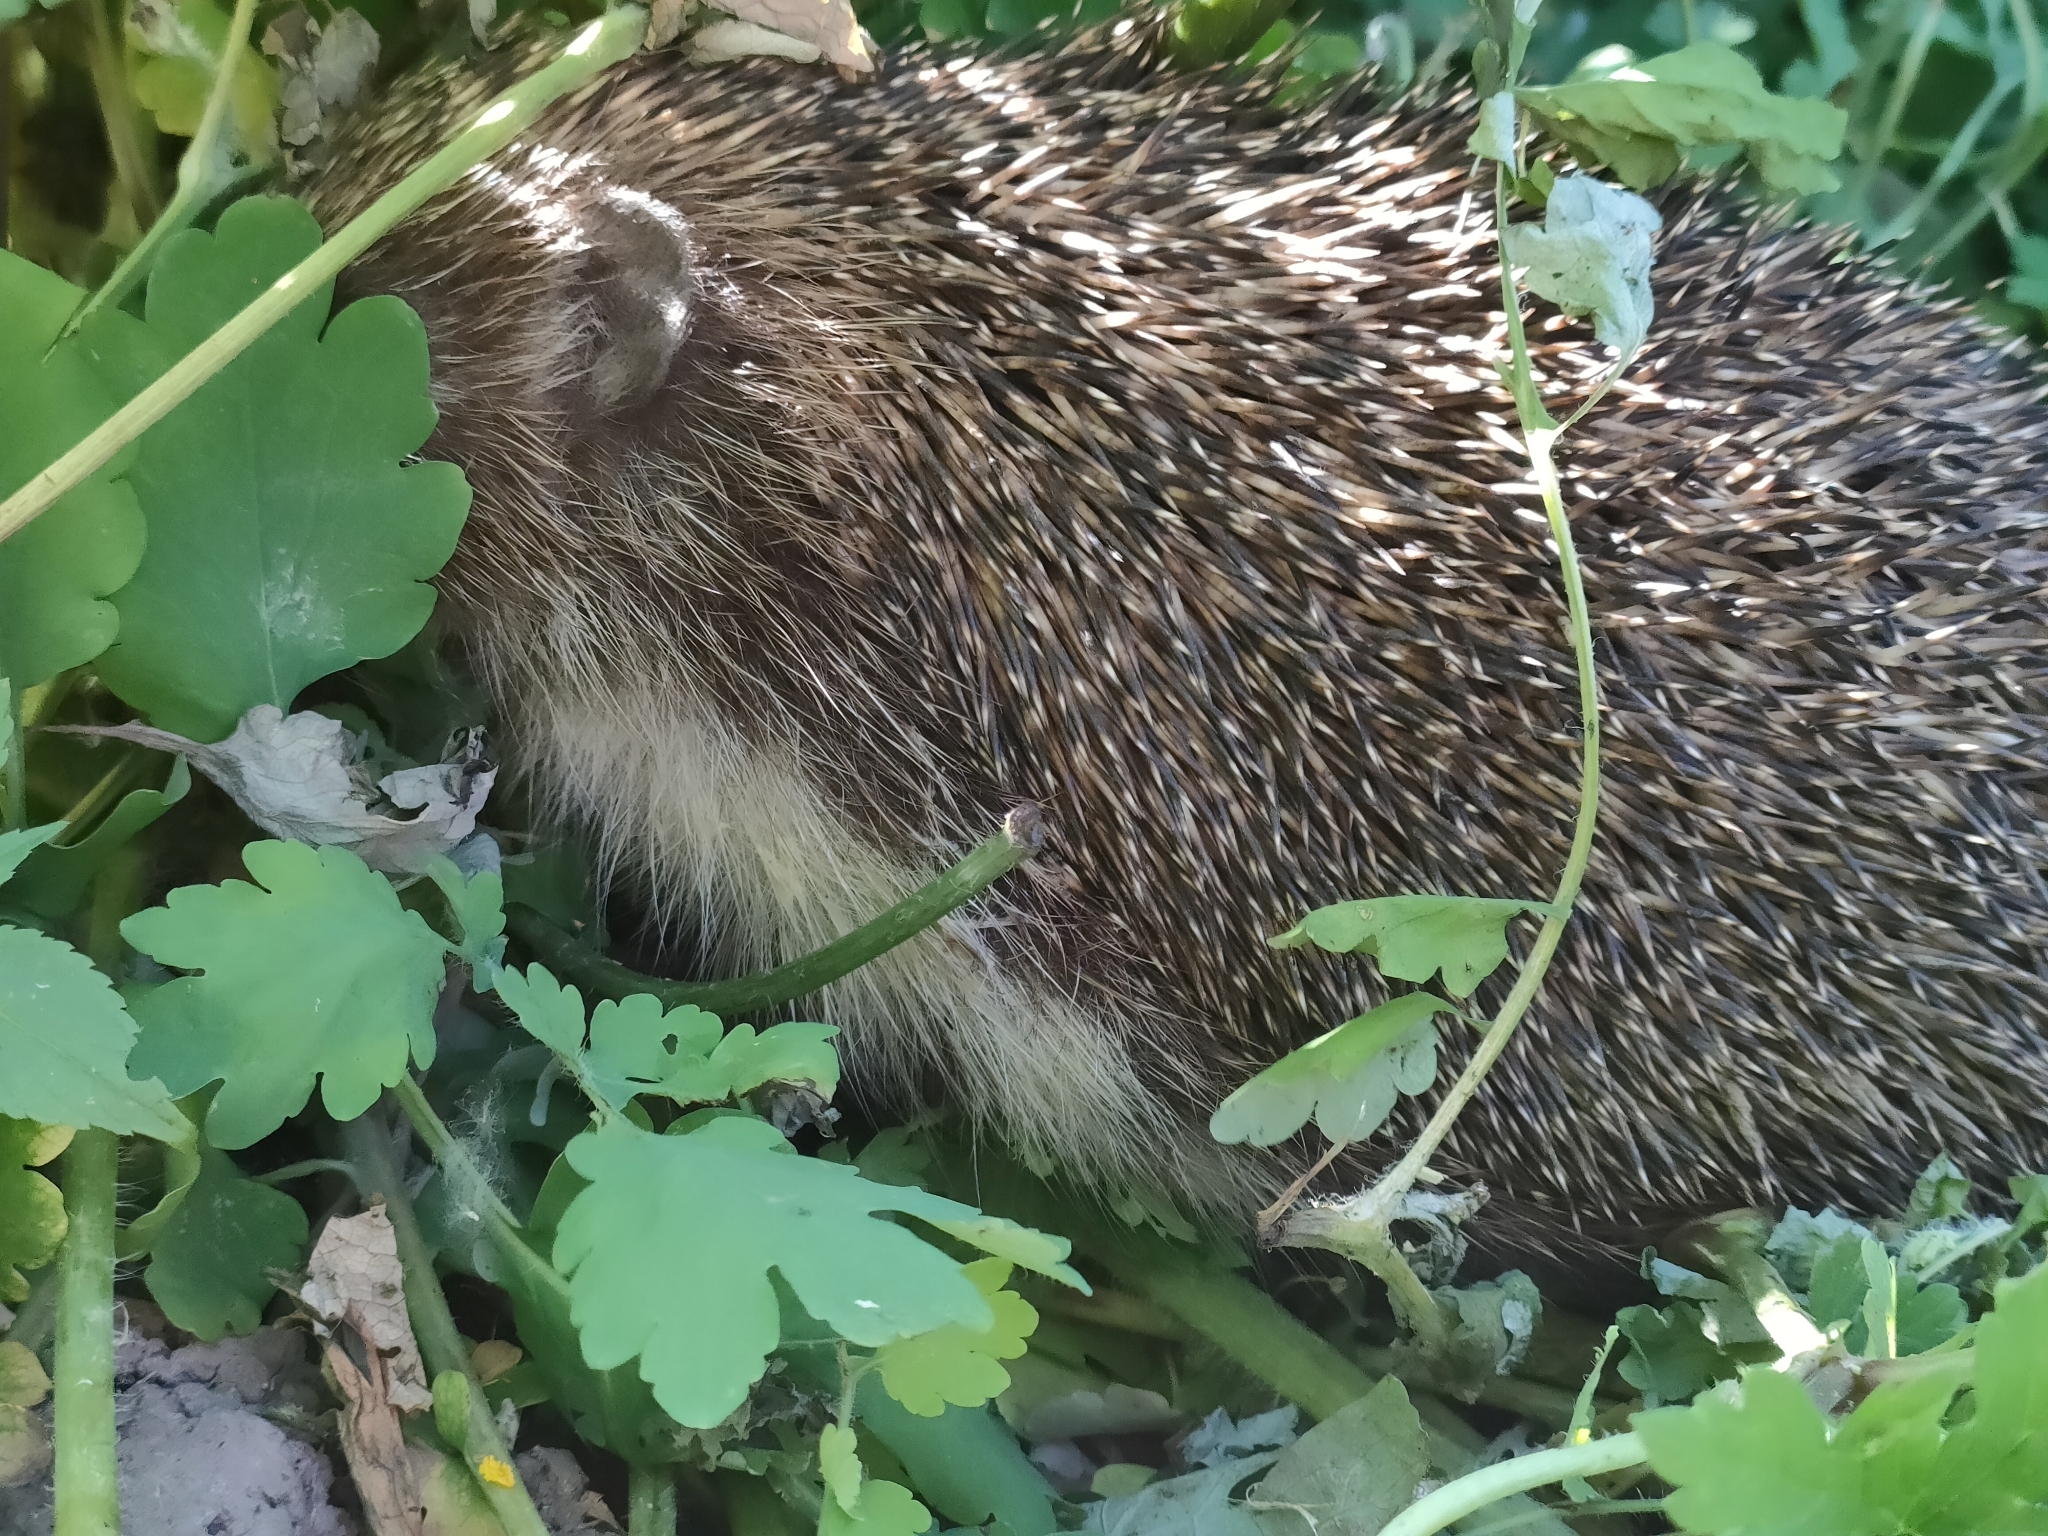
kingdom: Animalia
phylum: Chordata
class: Mammalia
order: Erinaceomorpha
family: Erinaceidae
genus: Erinaceus
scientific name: Erinaceus roumanicus
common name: Northern white-breasted hedgehog
